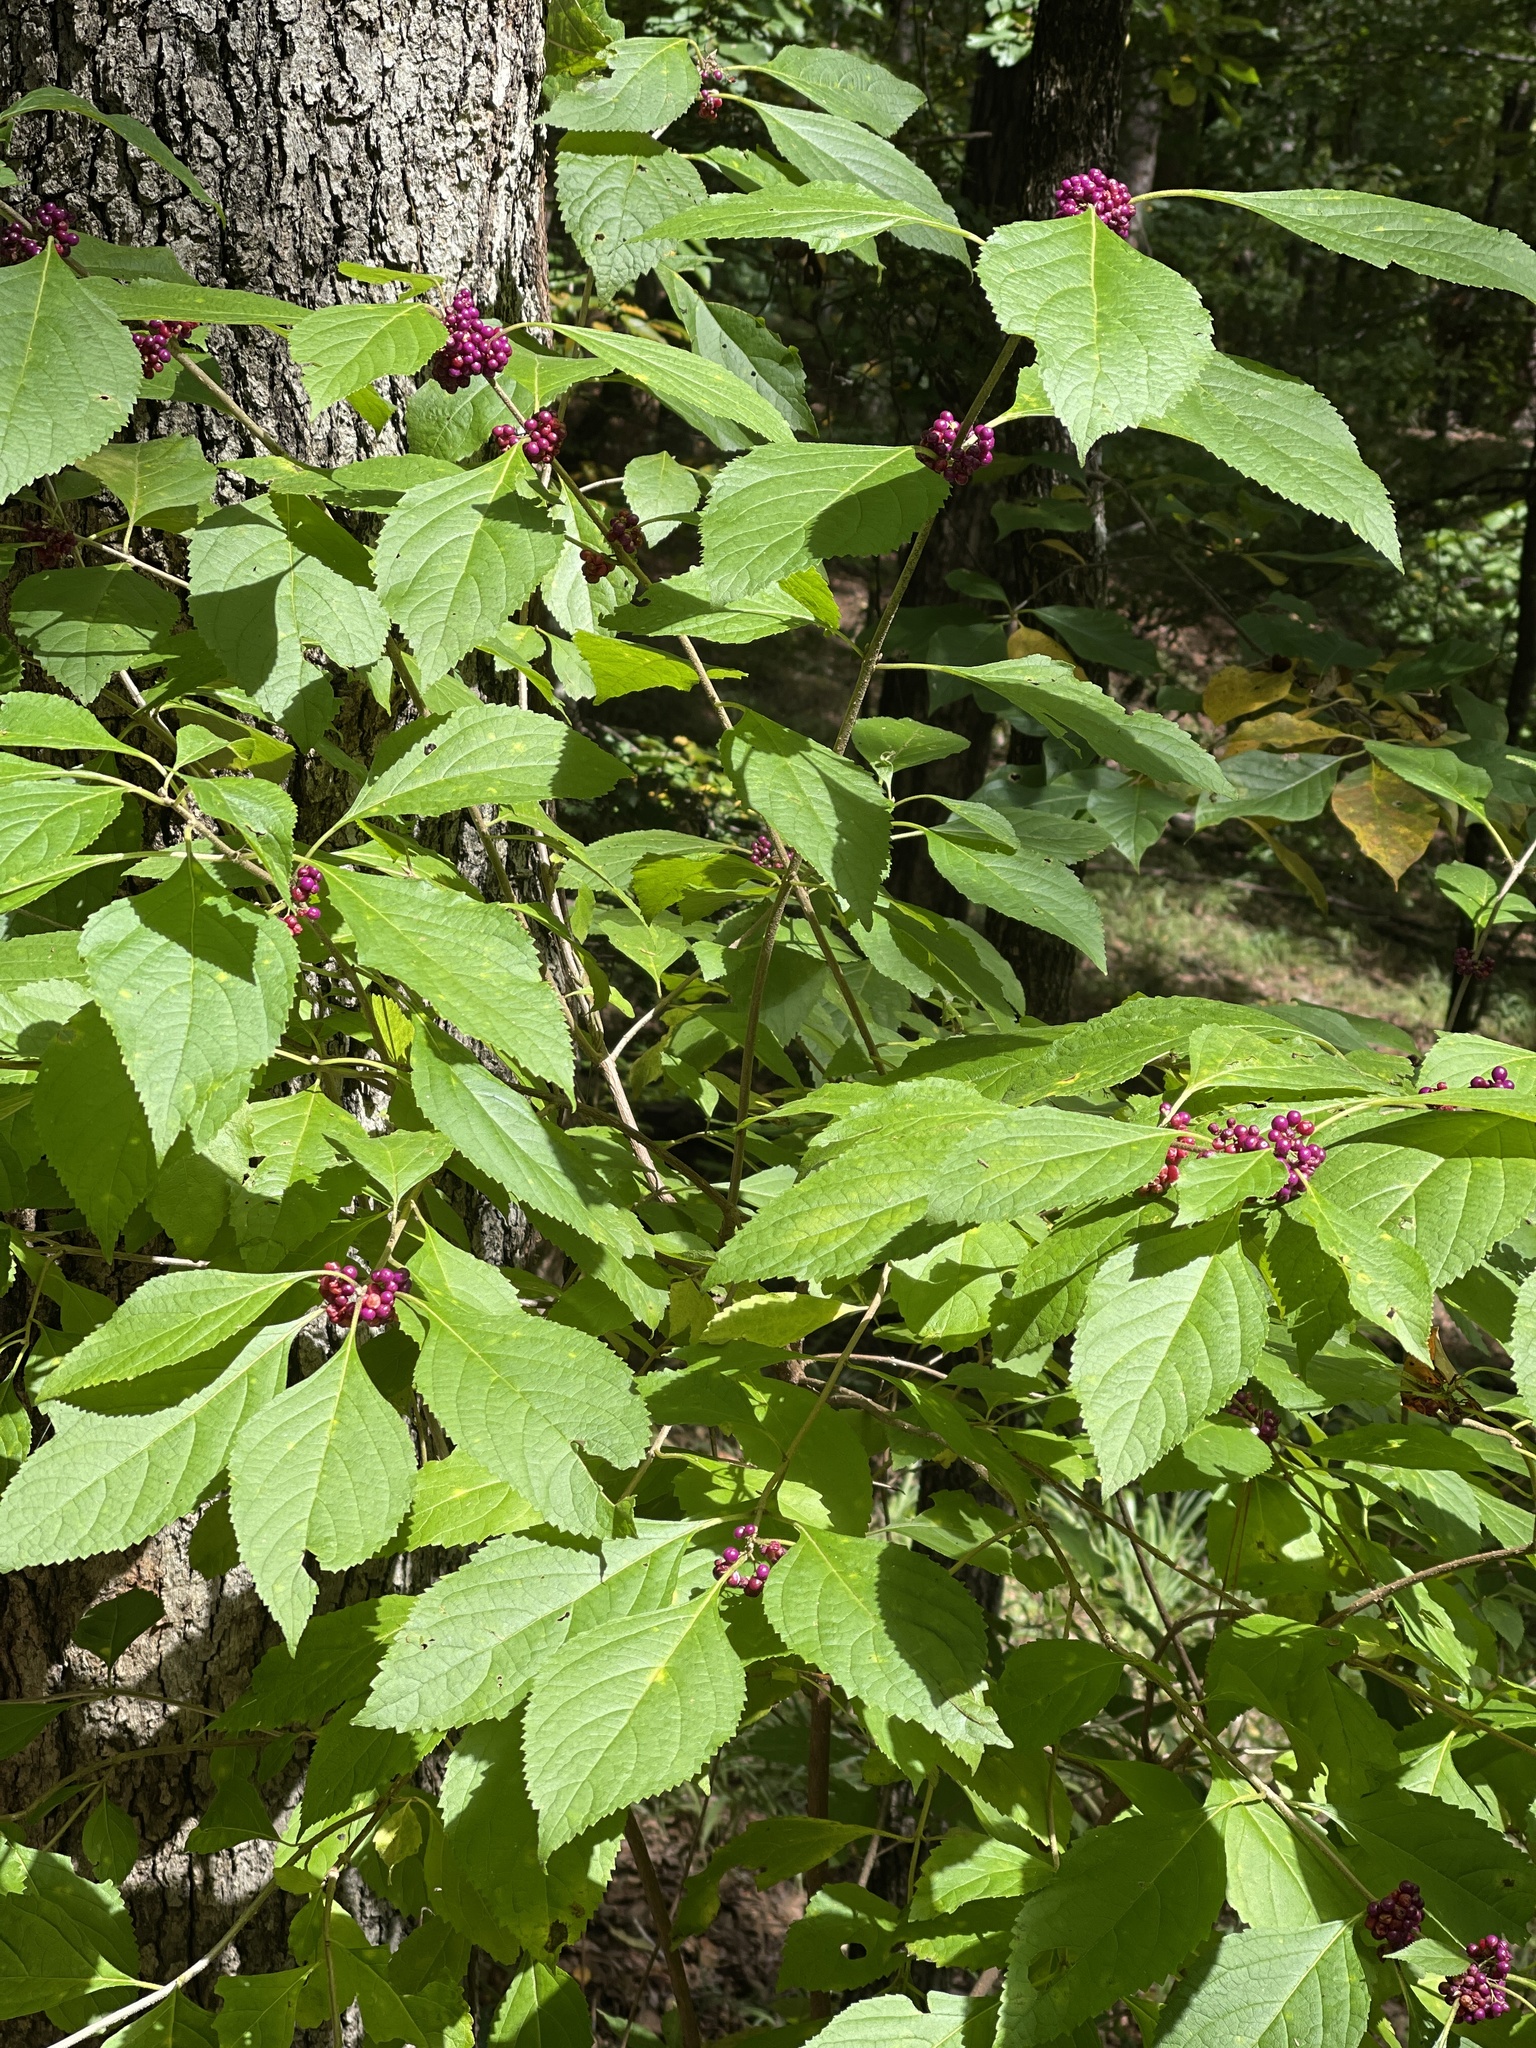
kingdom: Plantae
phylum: Tracheophyta
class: Magnoliopsida
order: Lamiales
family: Lamiaceae
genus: Callicarpa
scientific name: Callicarpa americana
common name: American beautyberry
